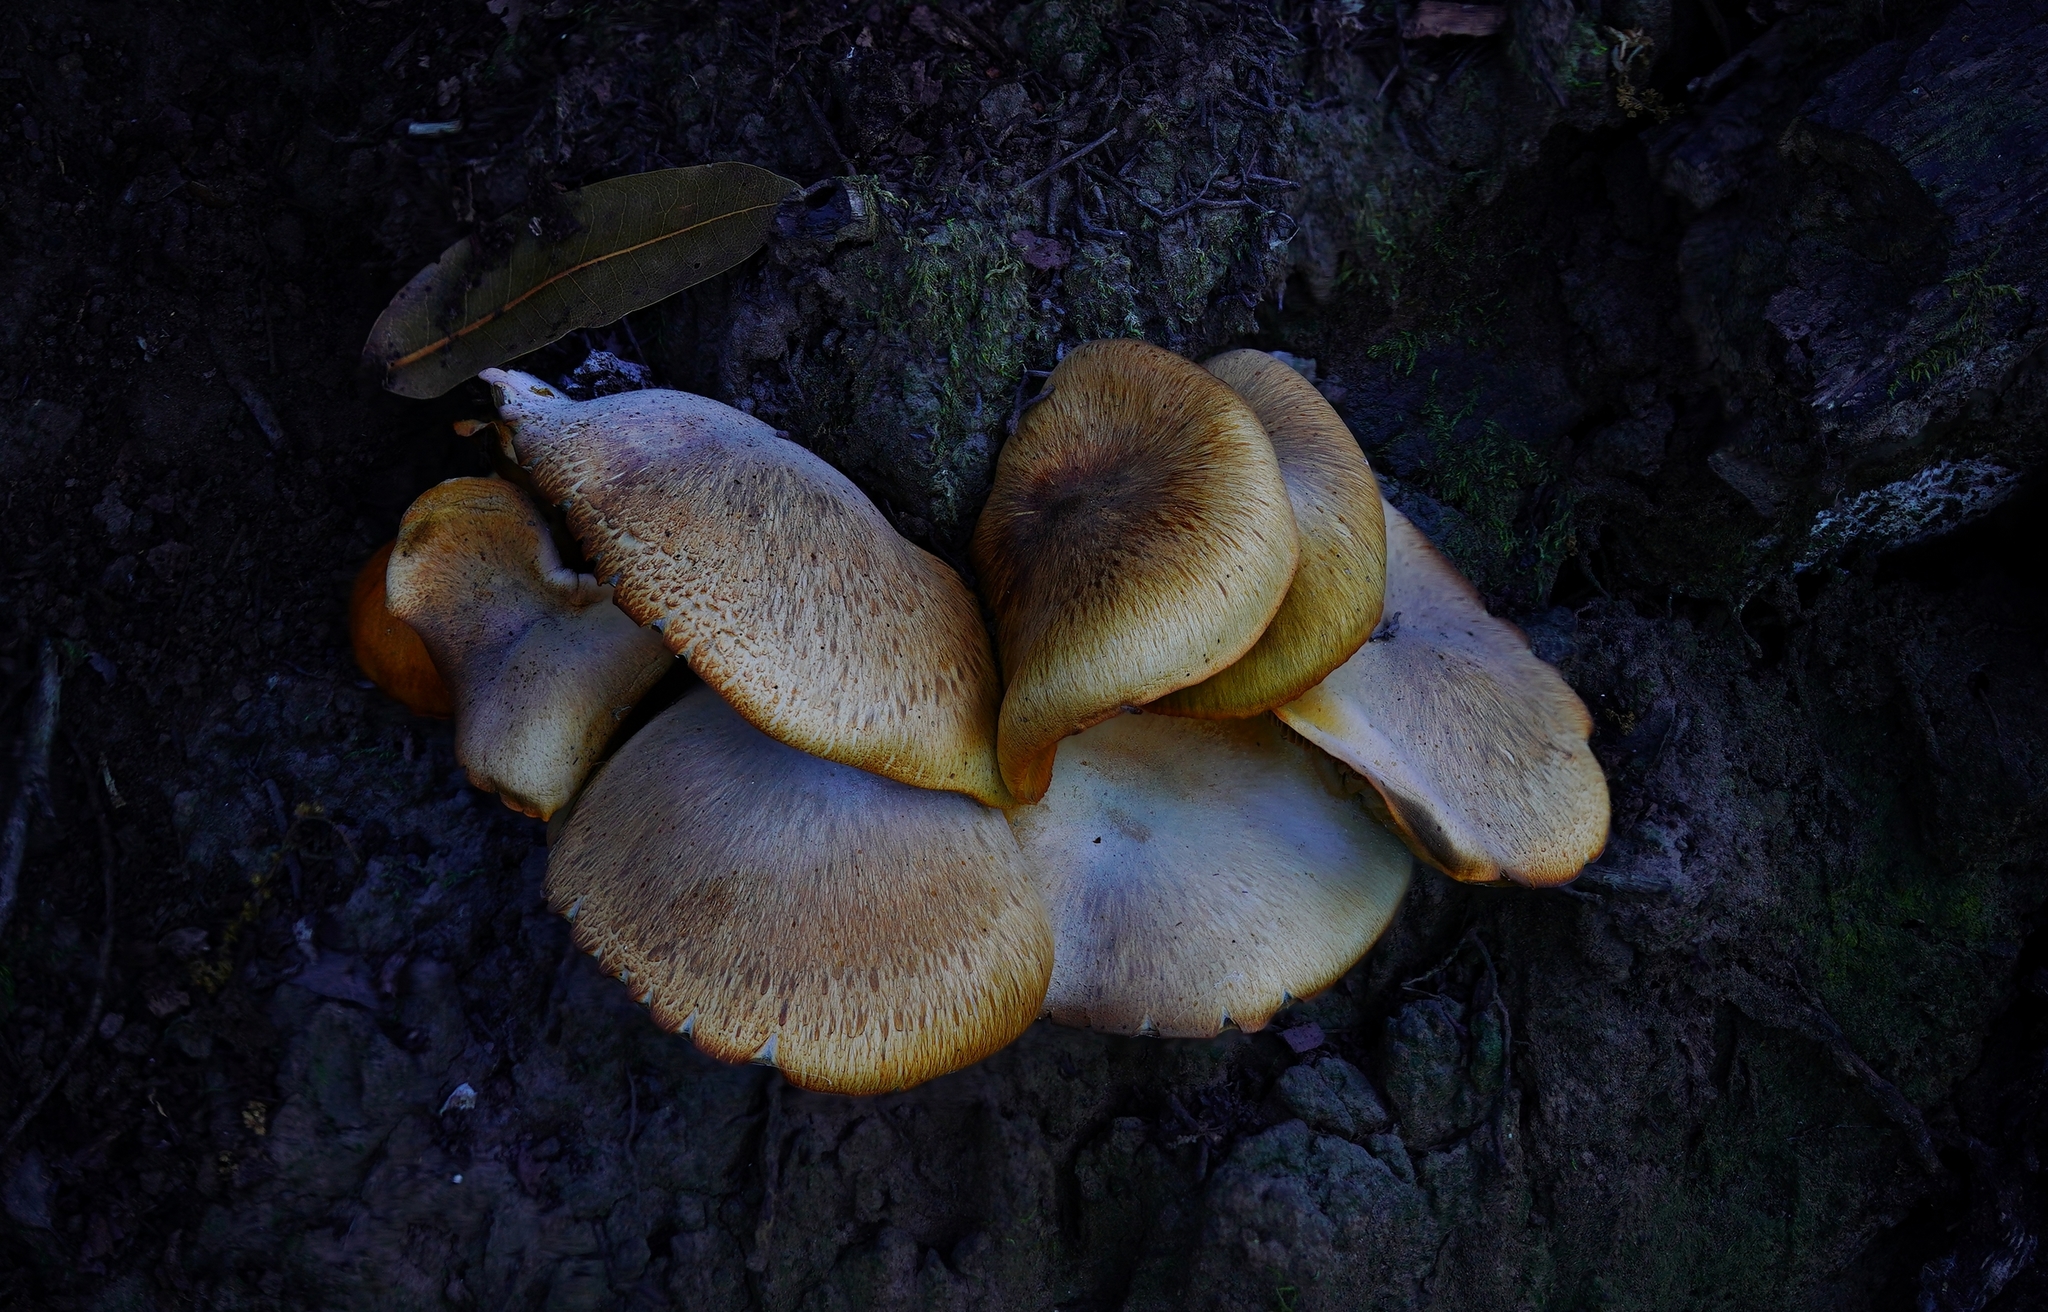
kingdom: Fungi
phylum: Basidiomycota
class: Agaricomycetes
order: Agaricales
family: Omphalotaceae
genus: Omphalotus
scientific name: Omphalotus olivascens
